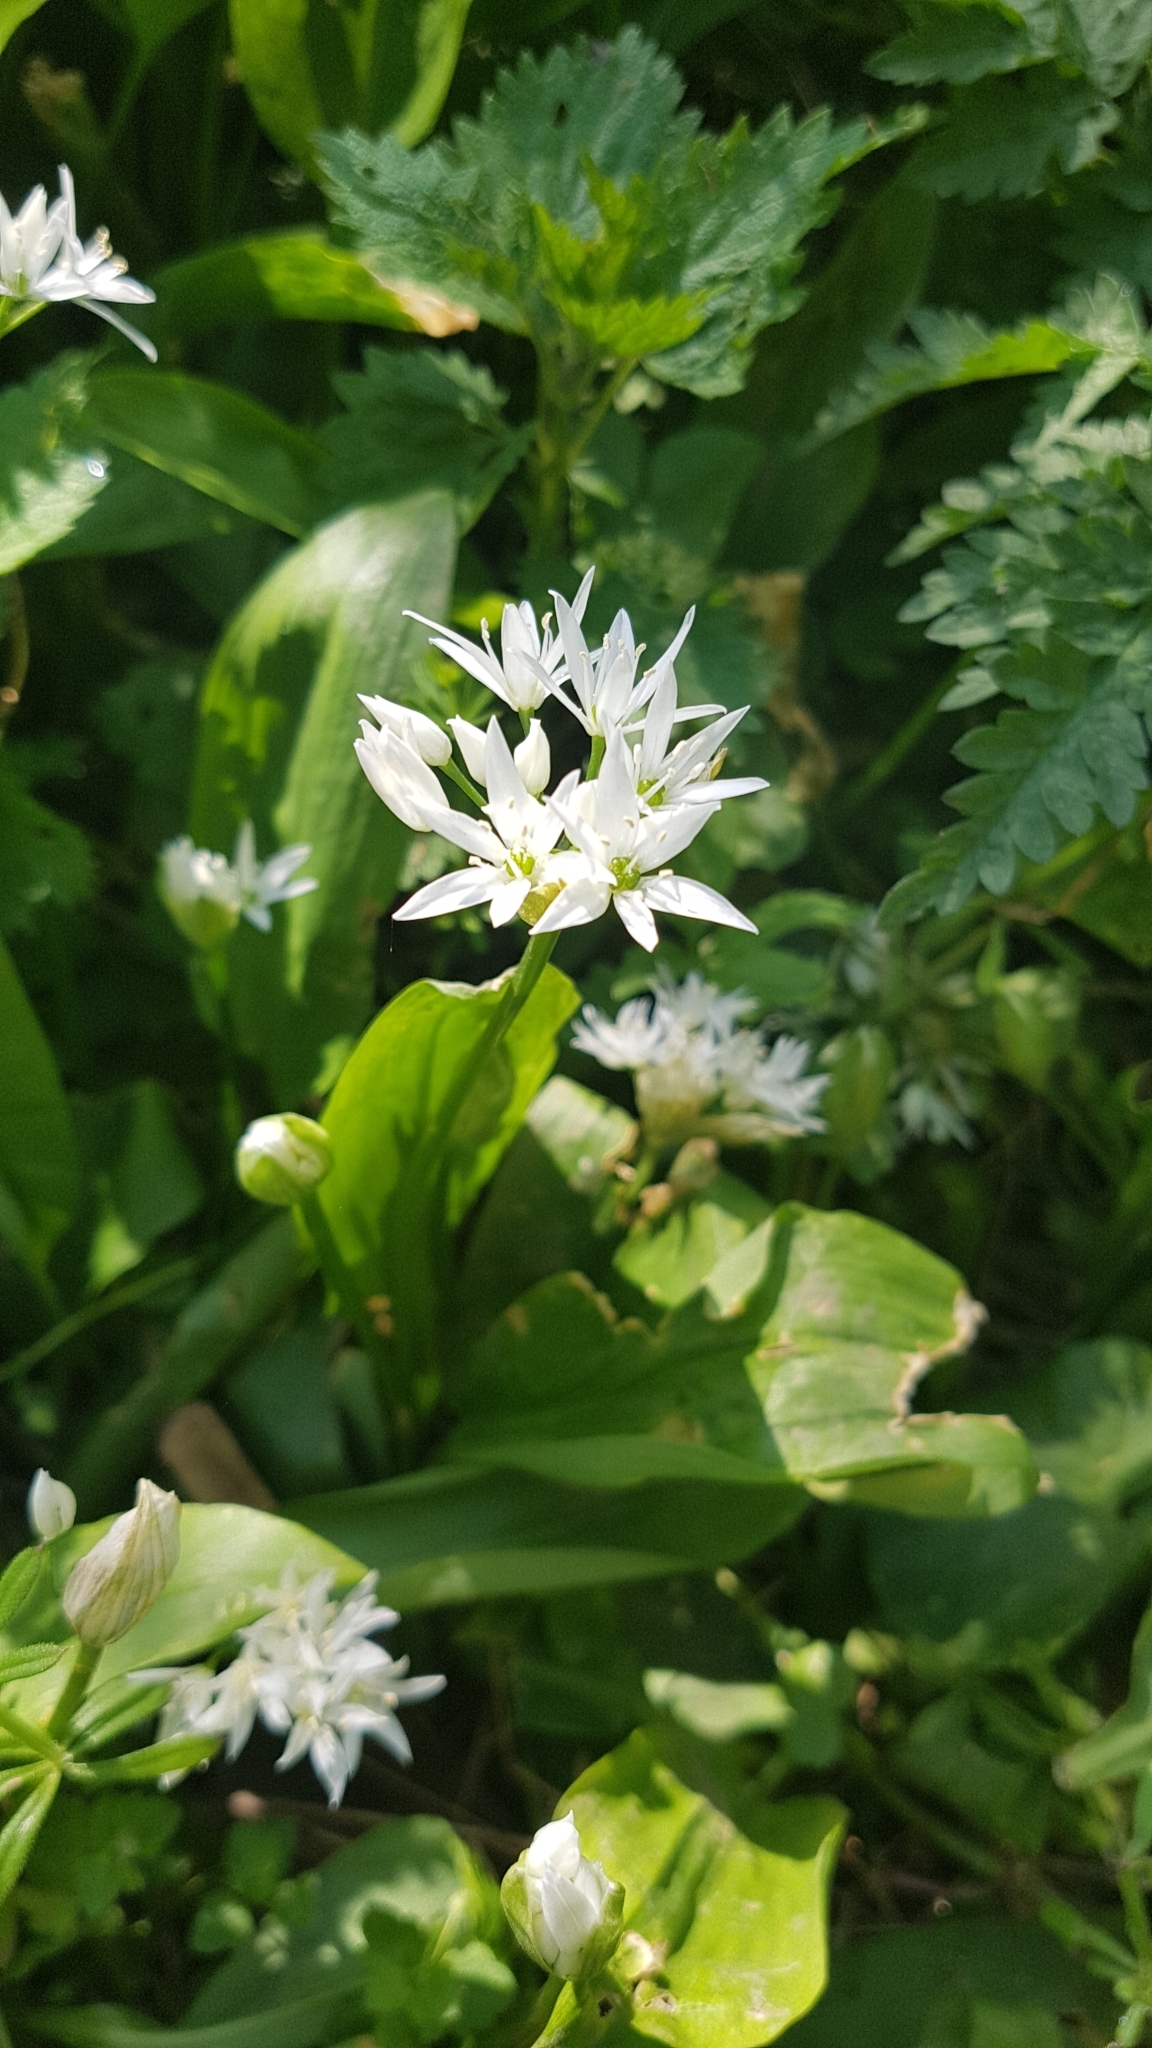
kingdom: Plantae
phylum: Tracheophyta
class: Liliopsida
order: Asparagales
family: Amaryllidaceae
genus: Allium
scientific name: Allium ursinum
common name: Ramsons
